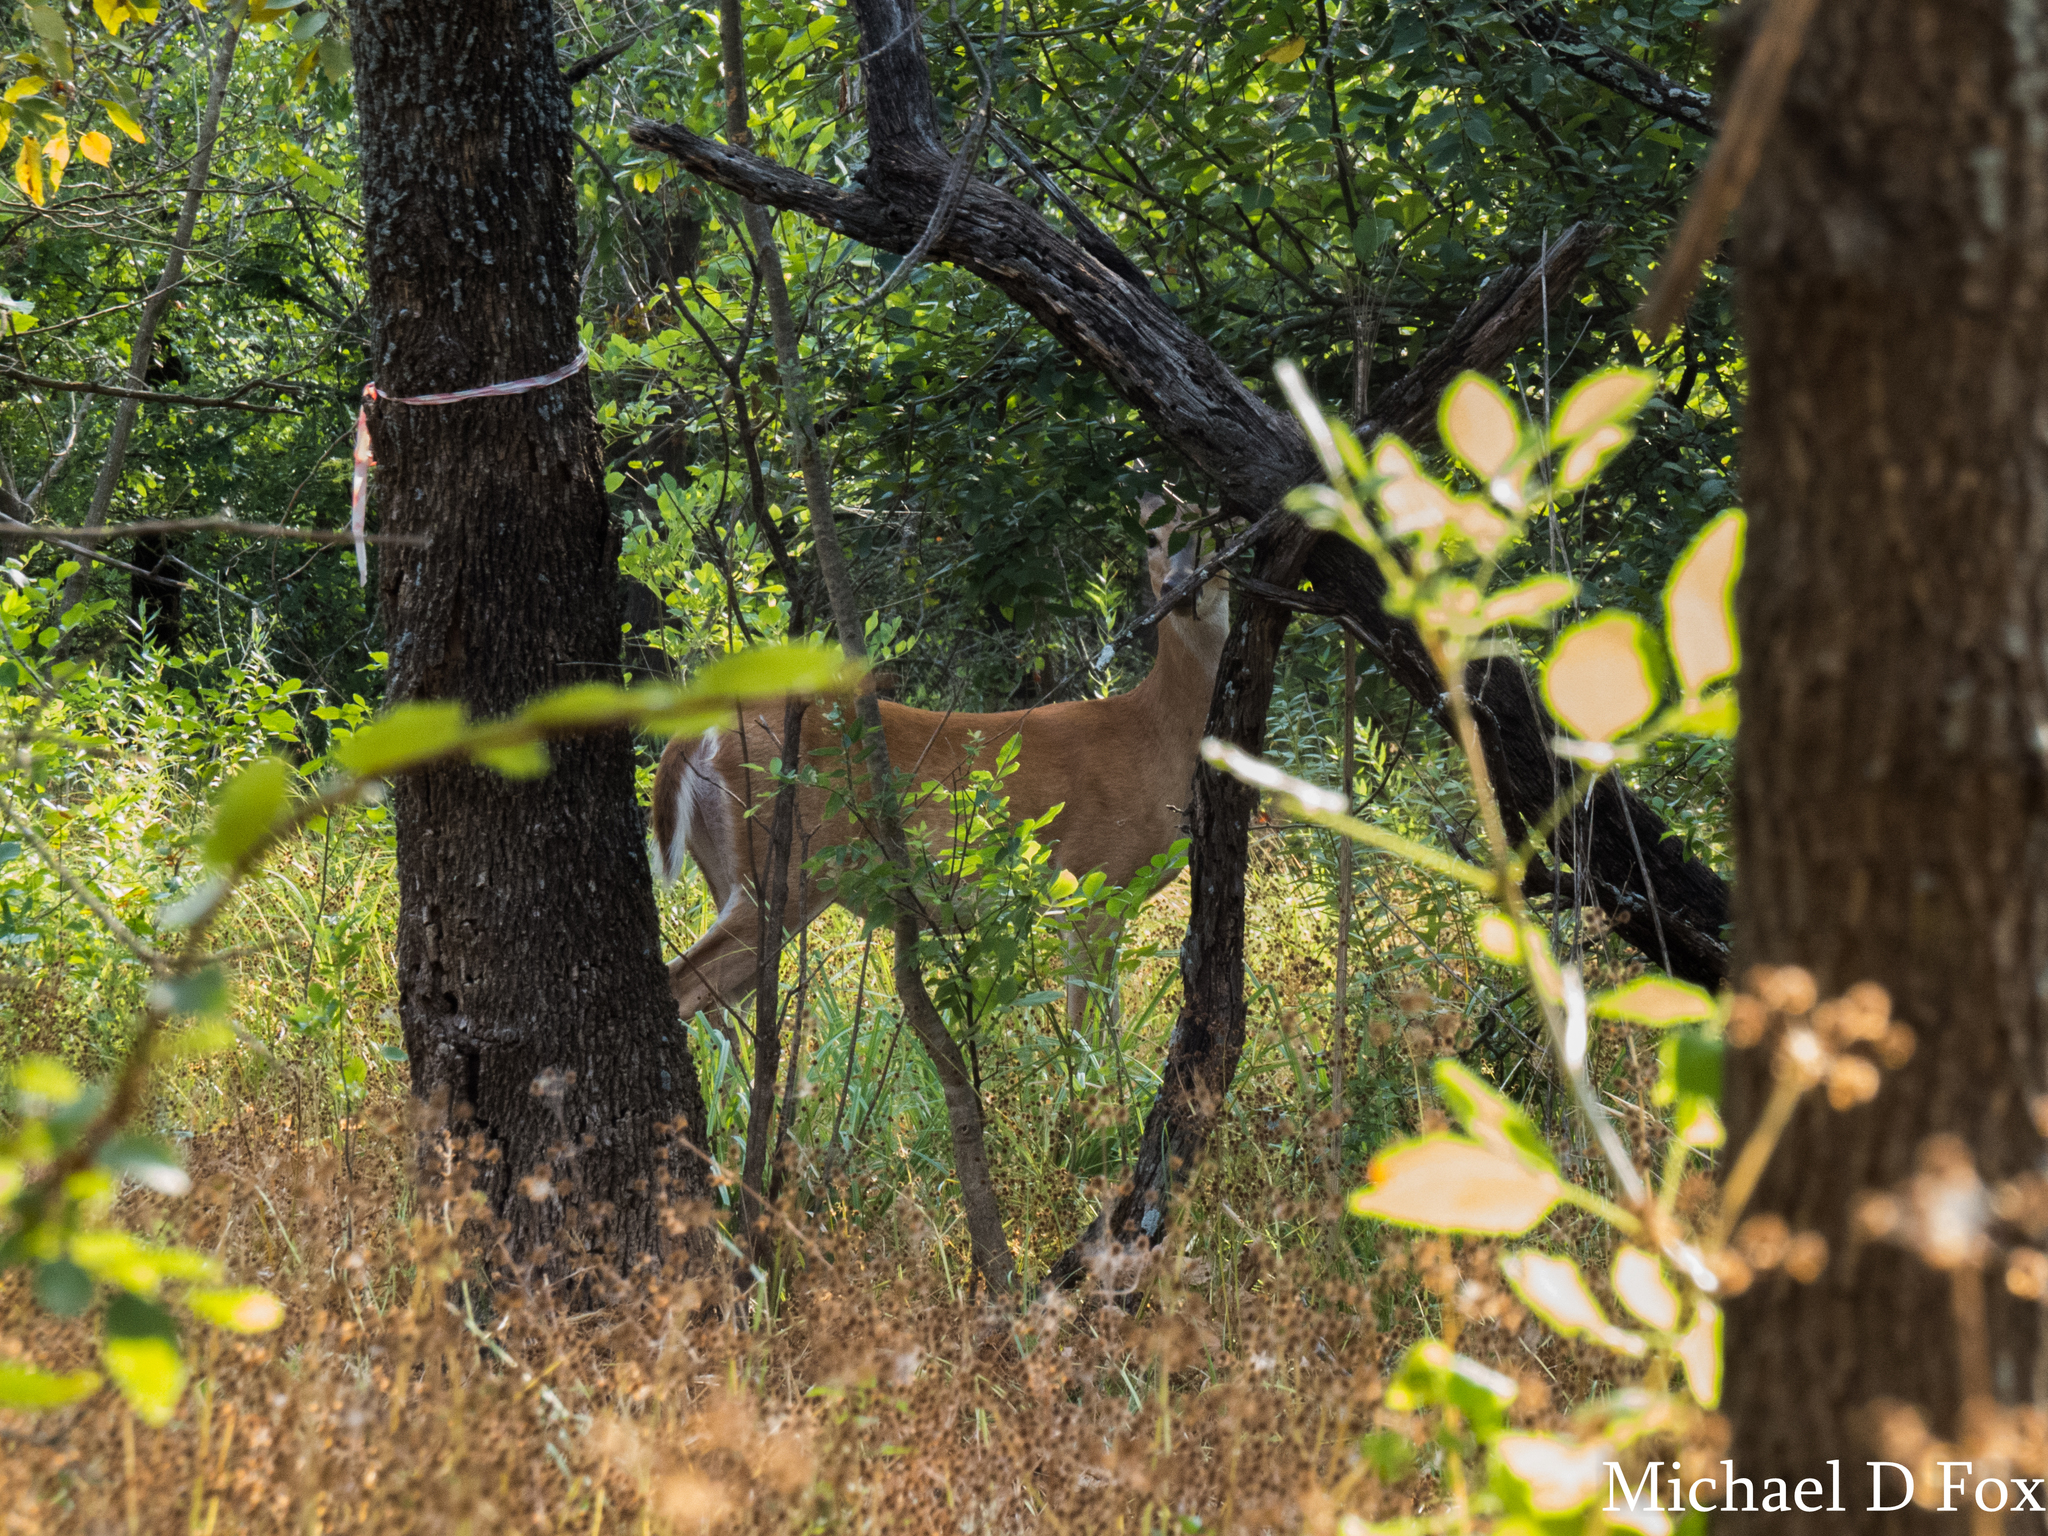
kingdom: Animalia
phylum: Chordata
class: Mammalia
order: Artiodactyla
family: Cervidae
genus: Odocoileus
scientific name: Odocoileus virginianus
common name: White-tailed deer
